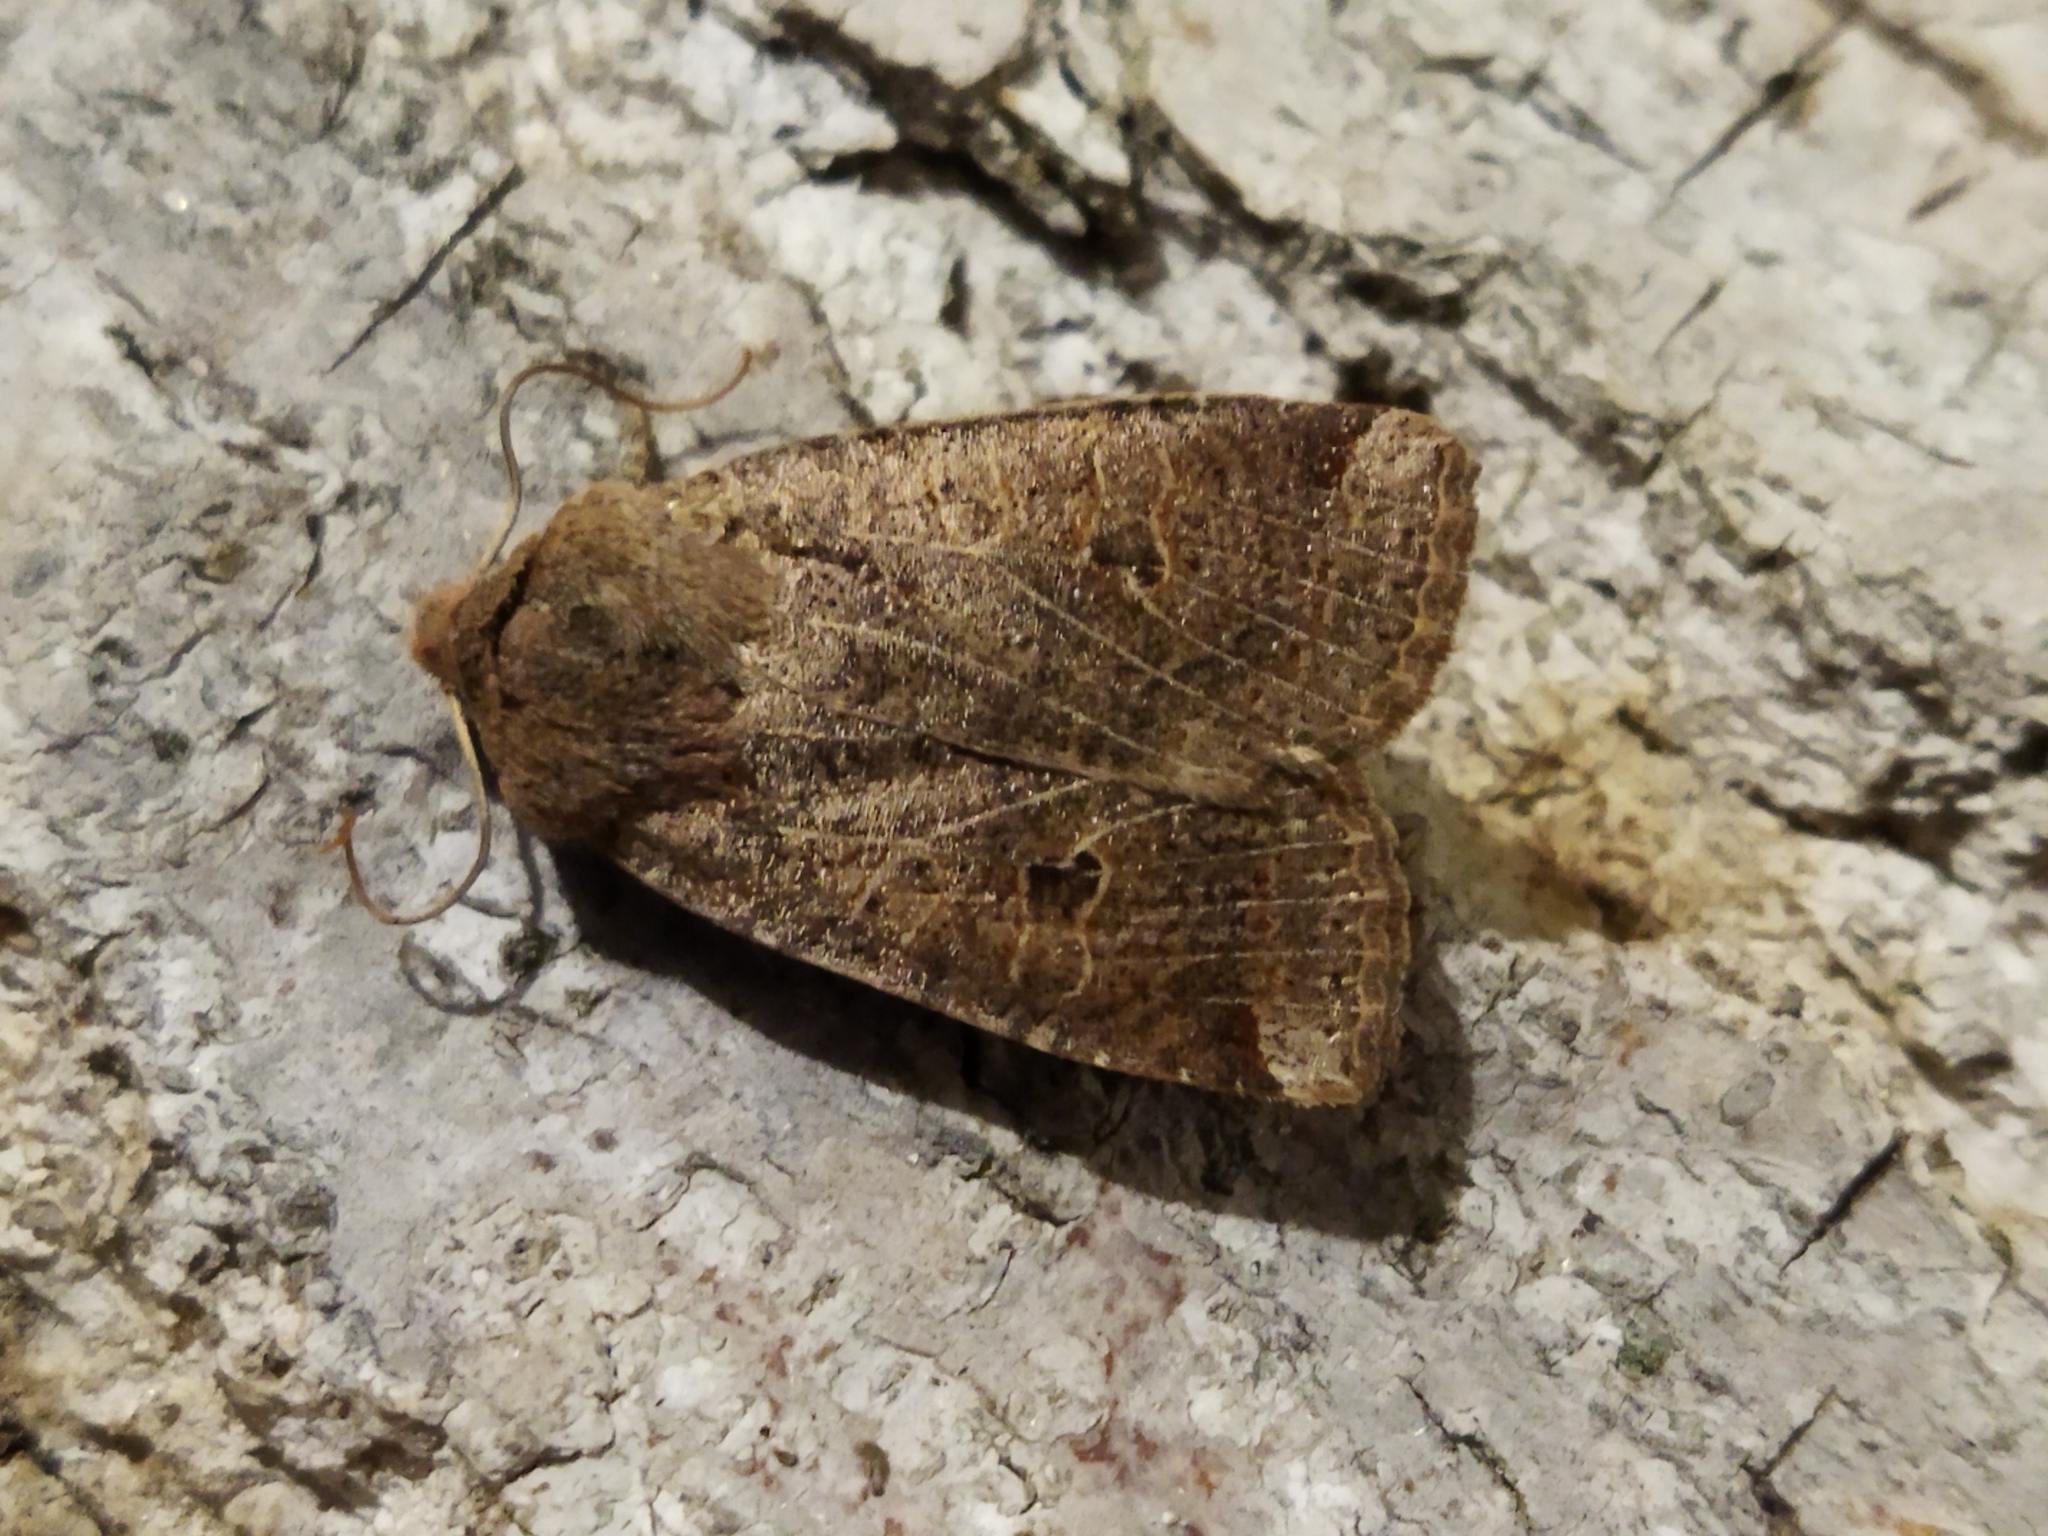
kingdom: Animalia
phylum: Arthropoda
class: Insecta
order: Lepidoptera
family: Noctuidae
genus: Conistra
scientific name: Conistra veronicae
